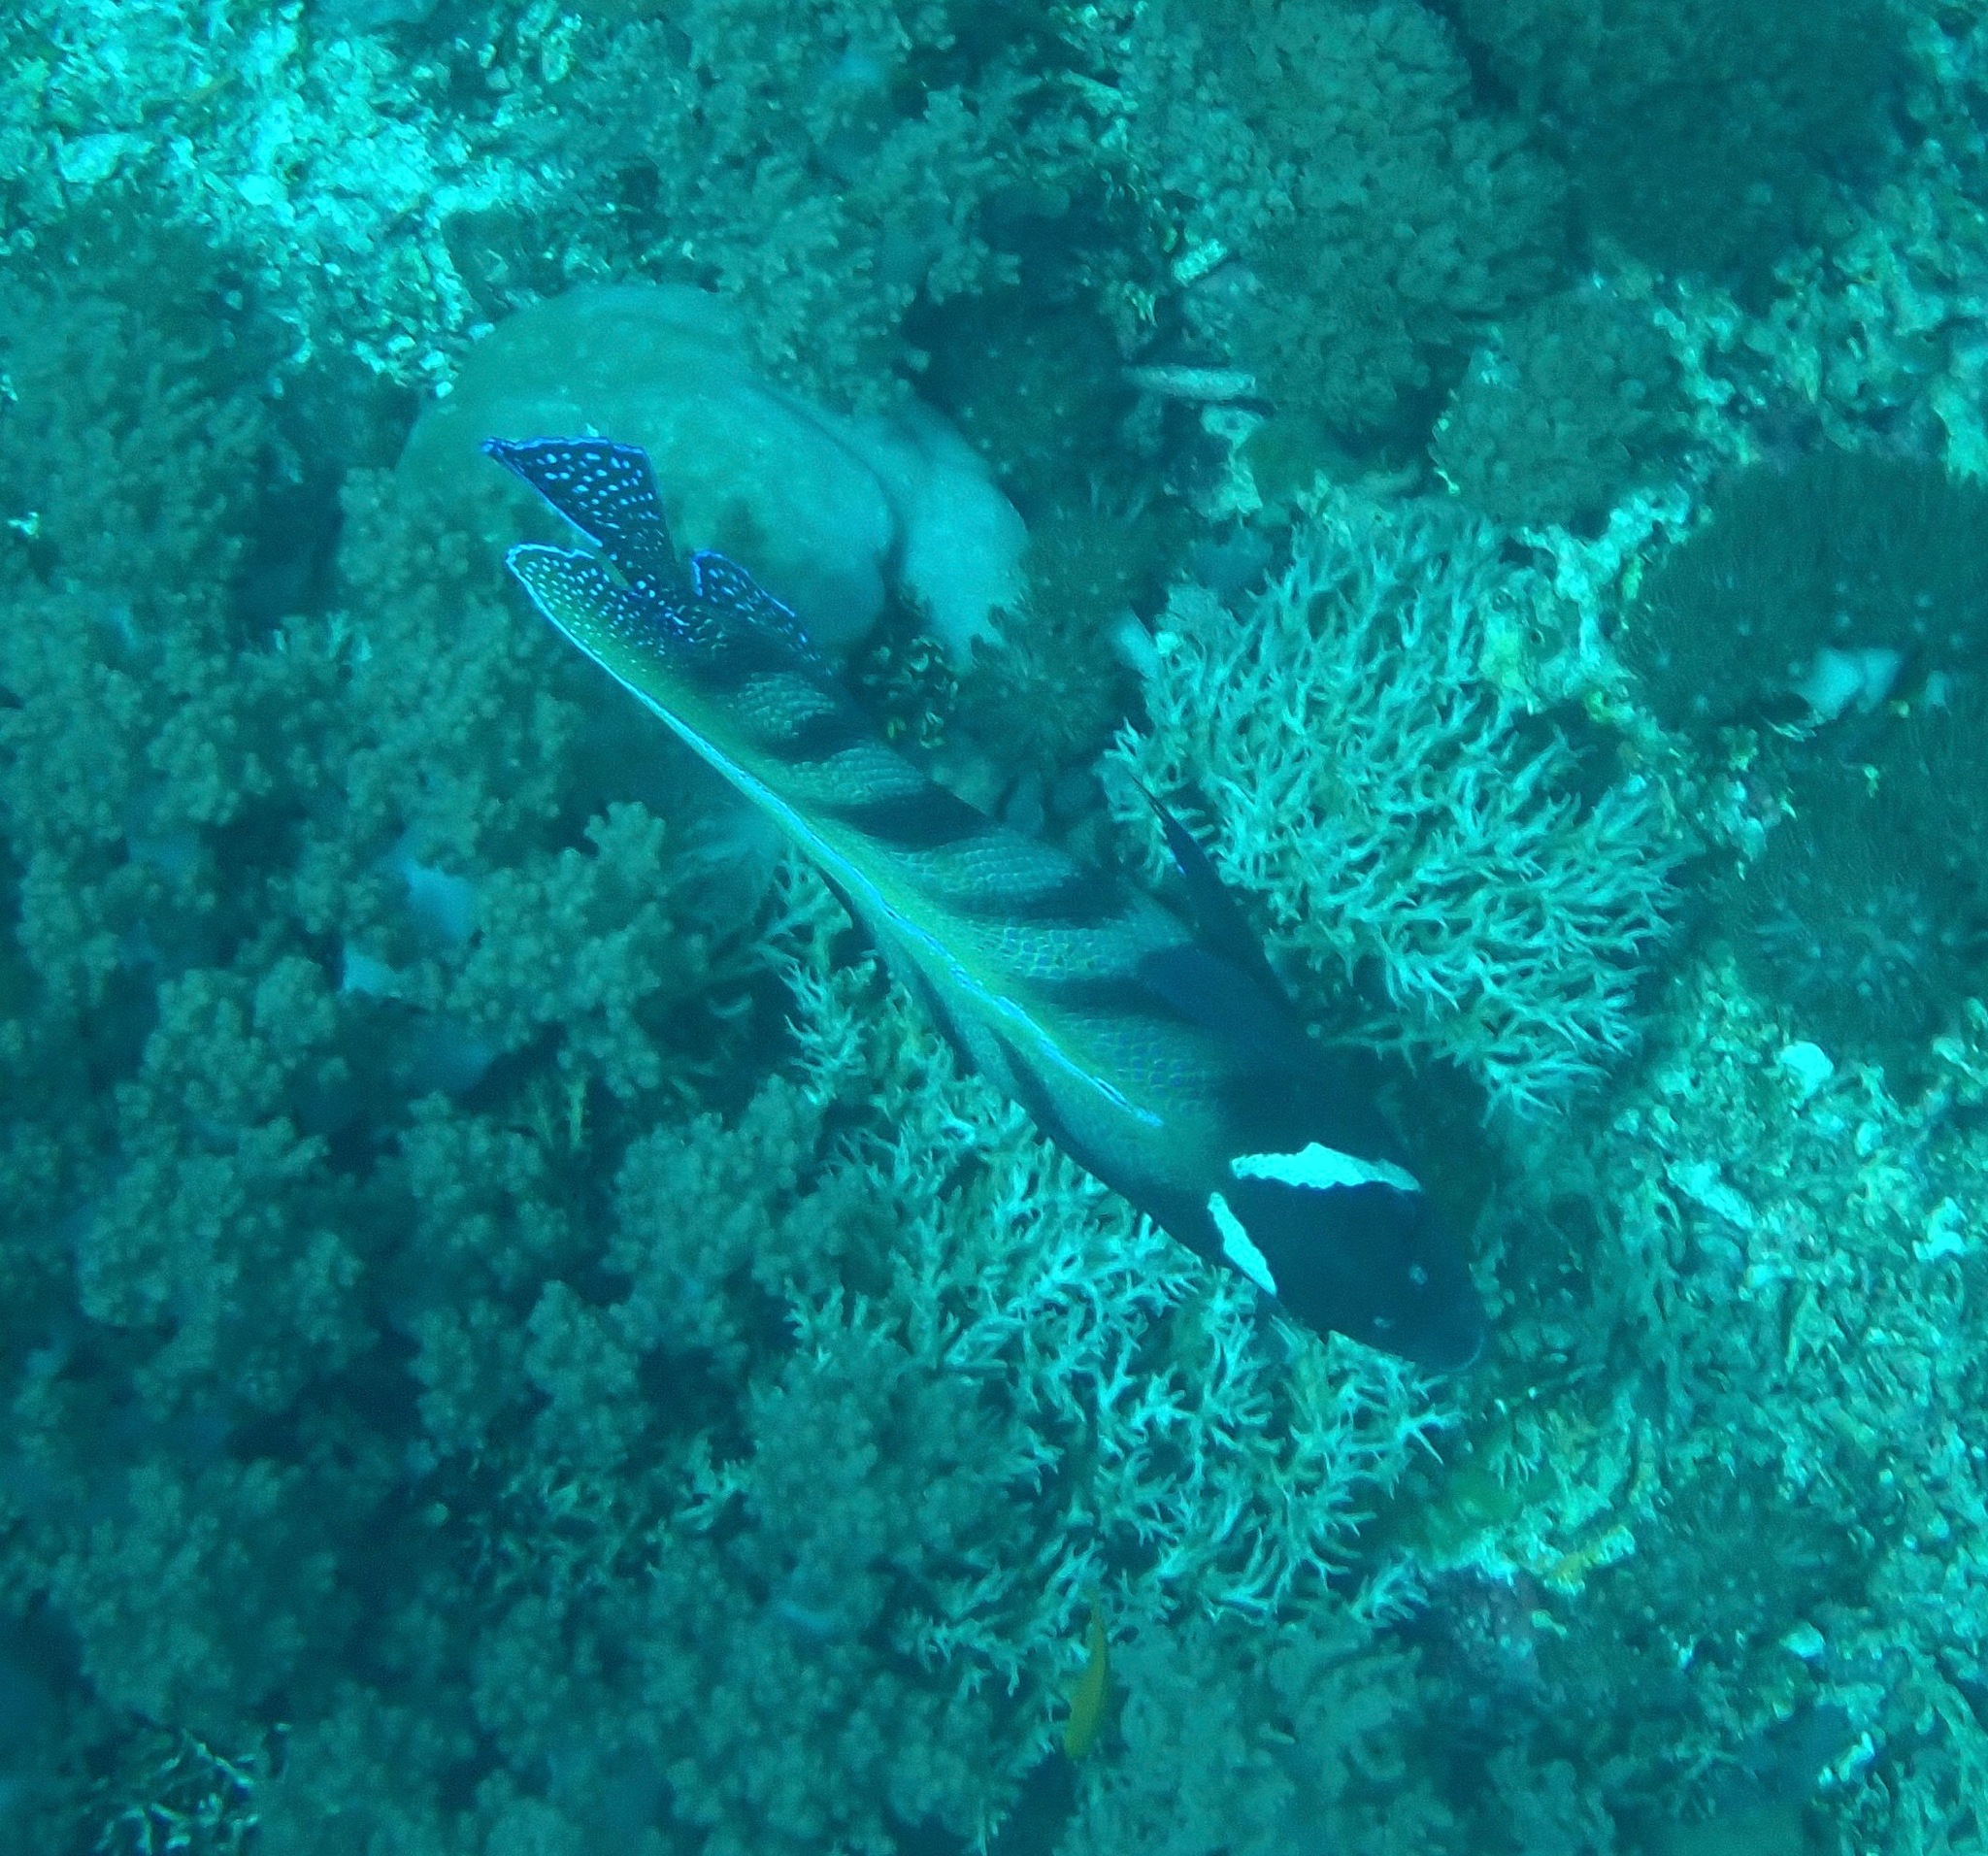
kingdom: Animalia
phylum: Chordata
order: Perciformes
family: Pomacanthidae
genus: Pomacanthus
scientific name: Pomacanthus sexstriatus
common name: Six-banded angelfish
